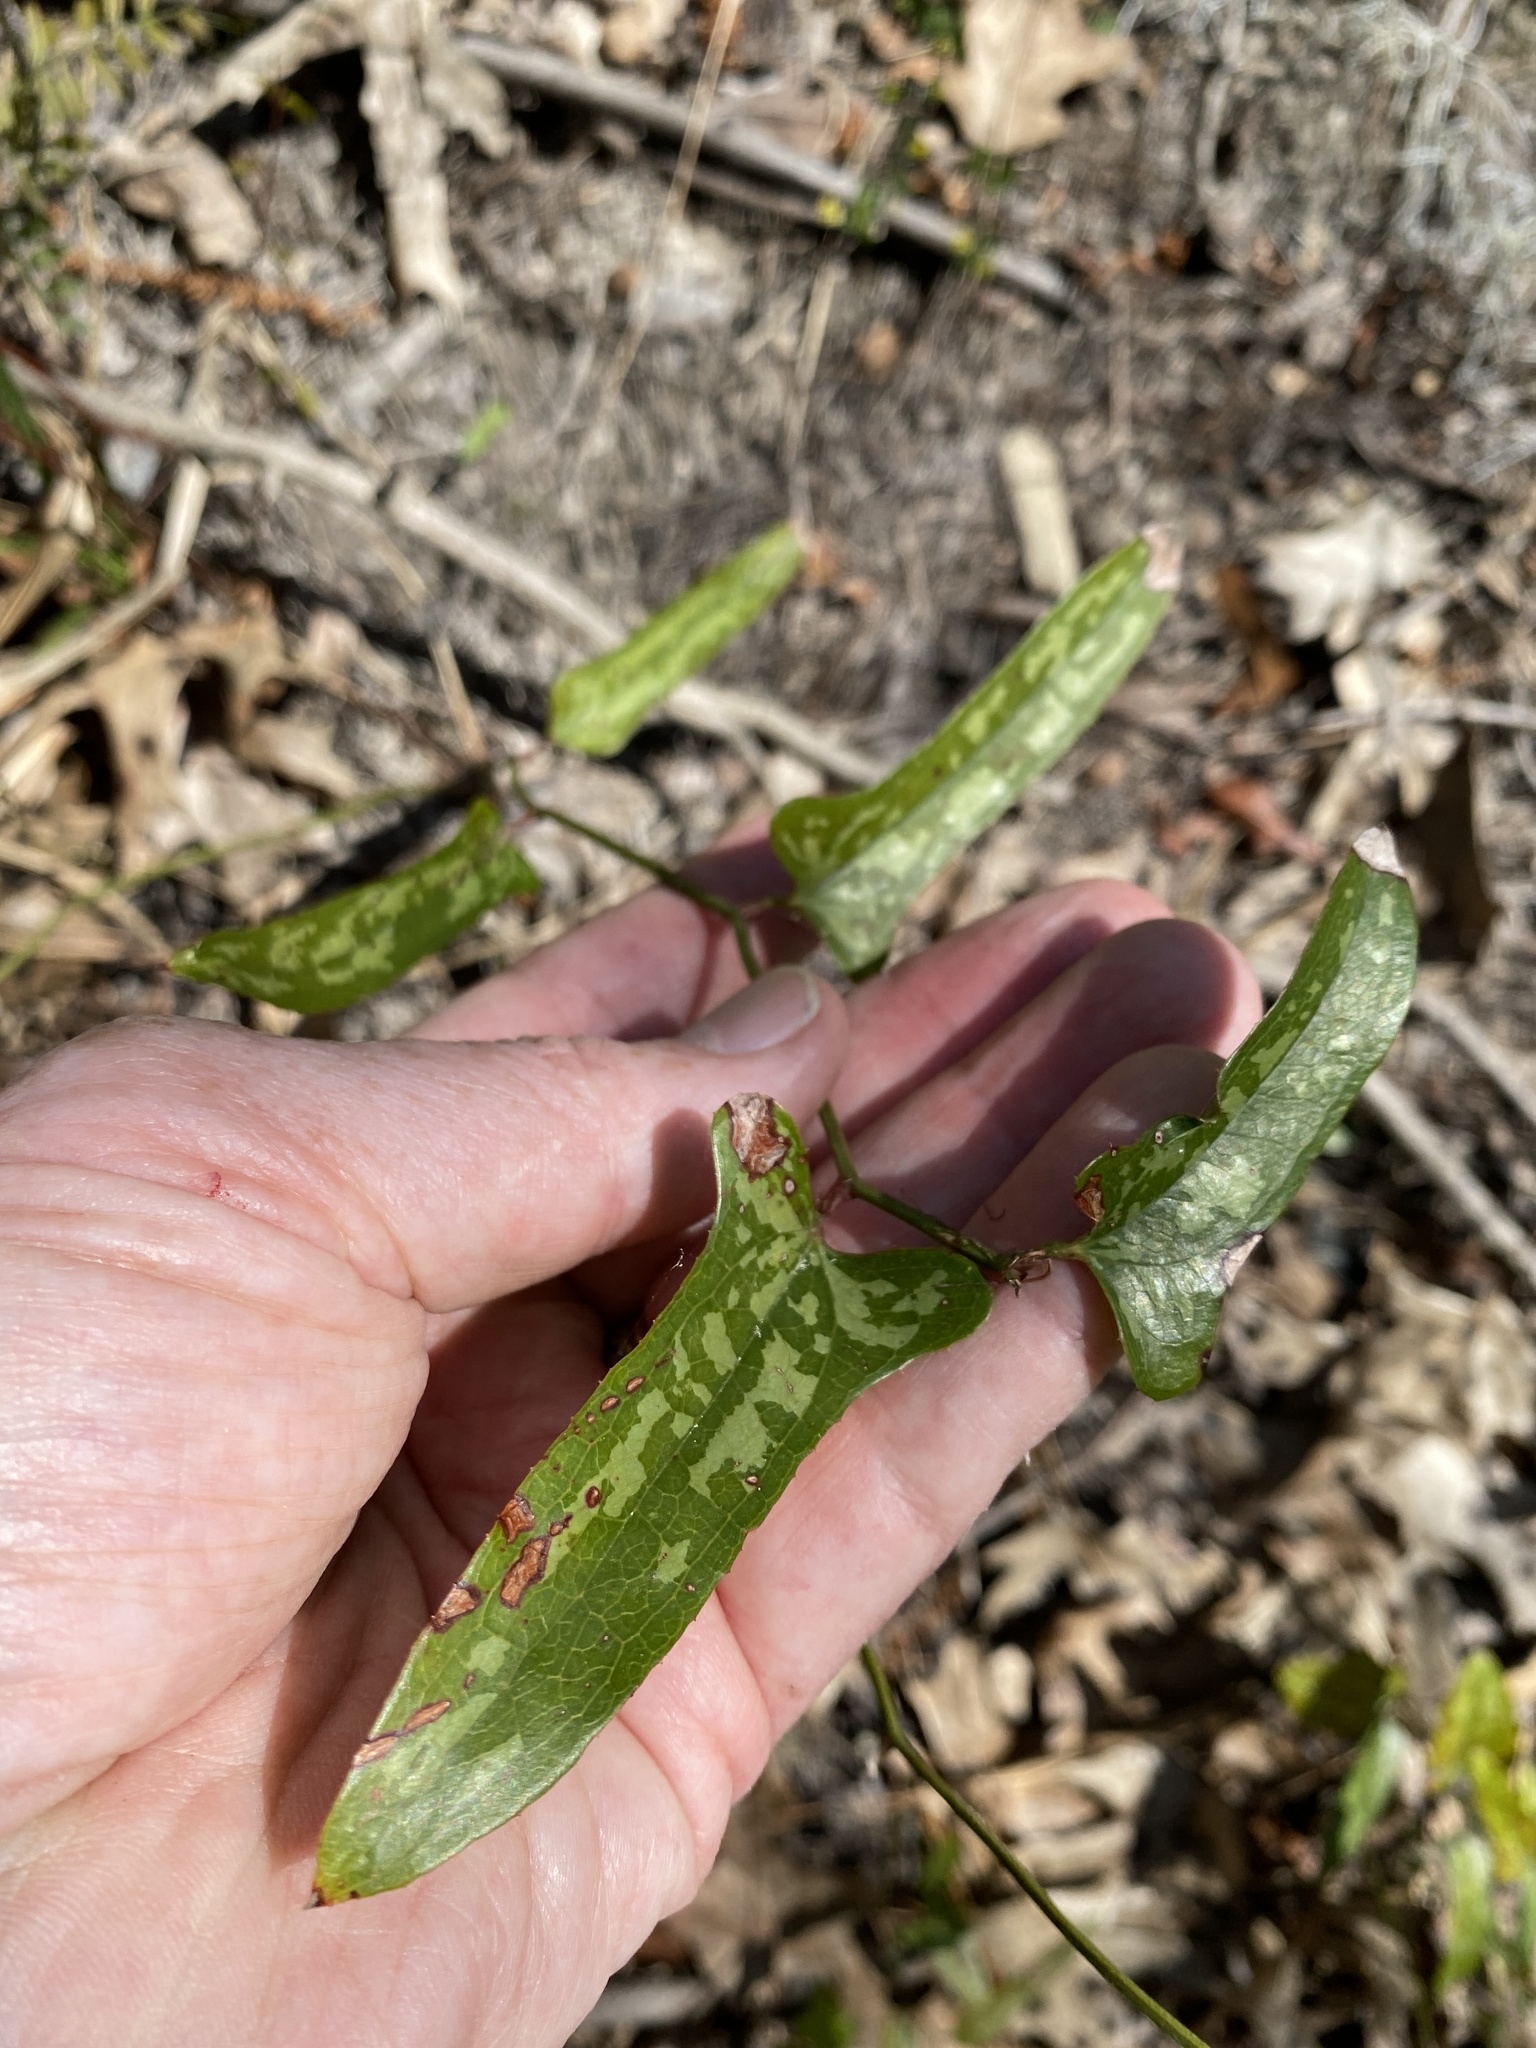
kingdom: Plantae
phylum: Tracheophyta
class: Liliopsida
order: Liliales
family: Smilacaceae
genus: Smilax
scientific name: Smilax bona-nox
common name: Catbrier
